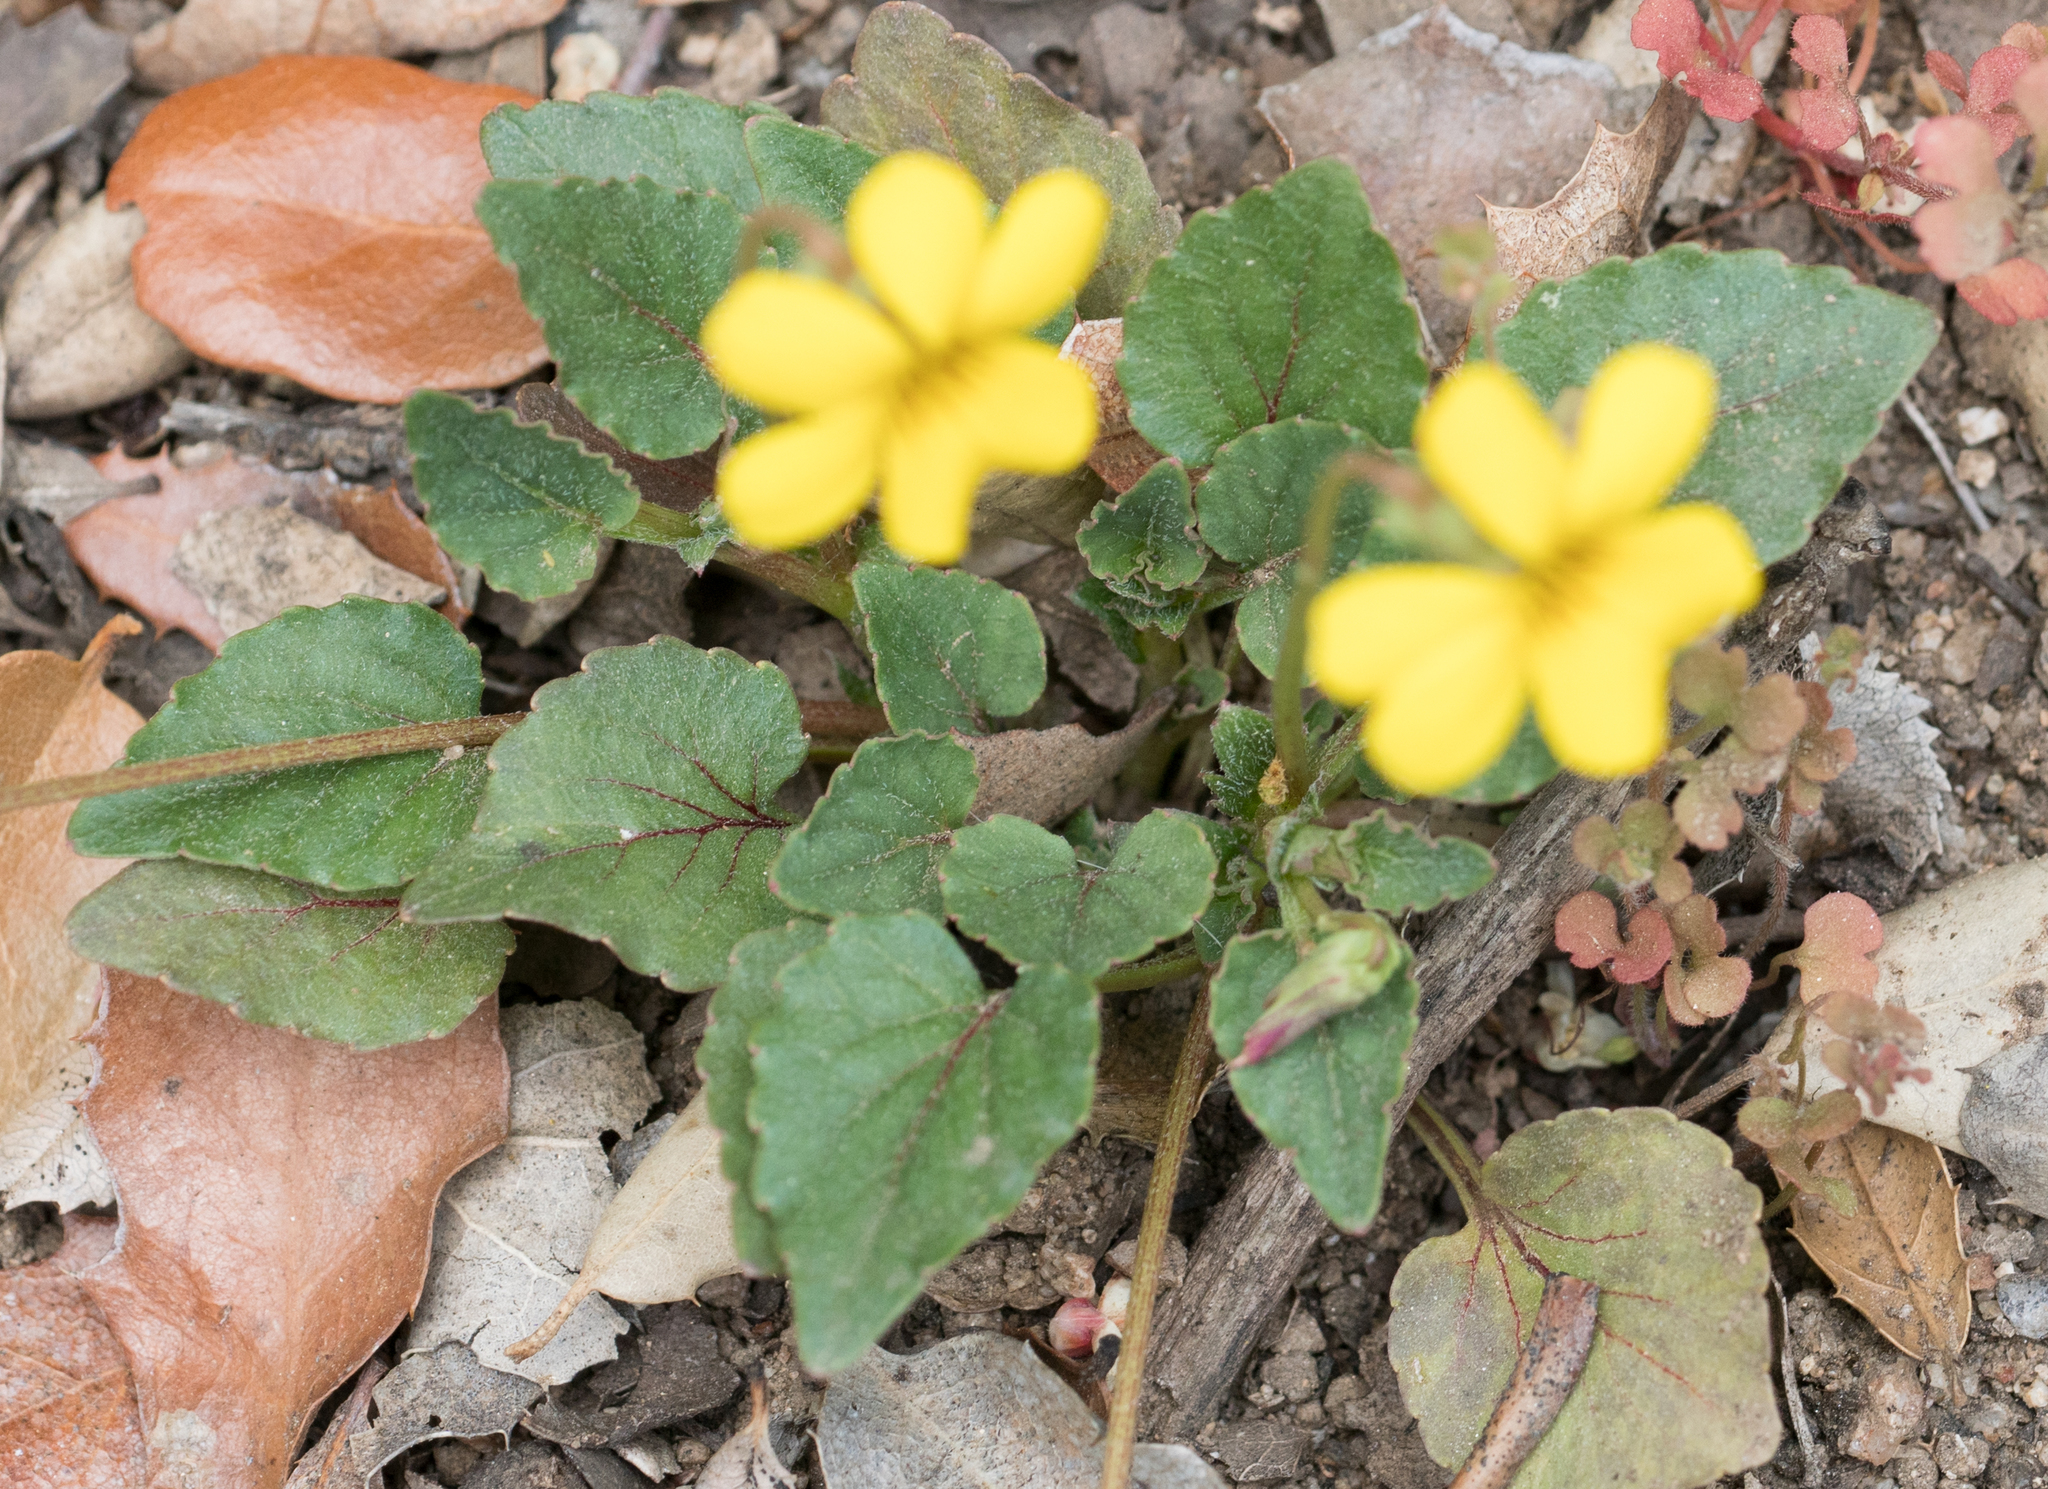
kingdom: Plantae
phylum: Tracheophyta
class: Magnoliopsida
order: Malpighiales
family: Violaceae
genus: Viola
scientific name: Viola purpurea
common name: Pine violet
